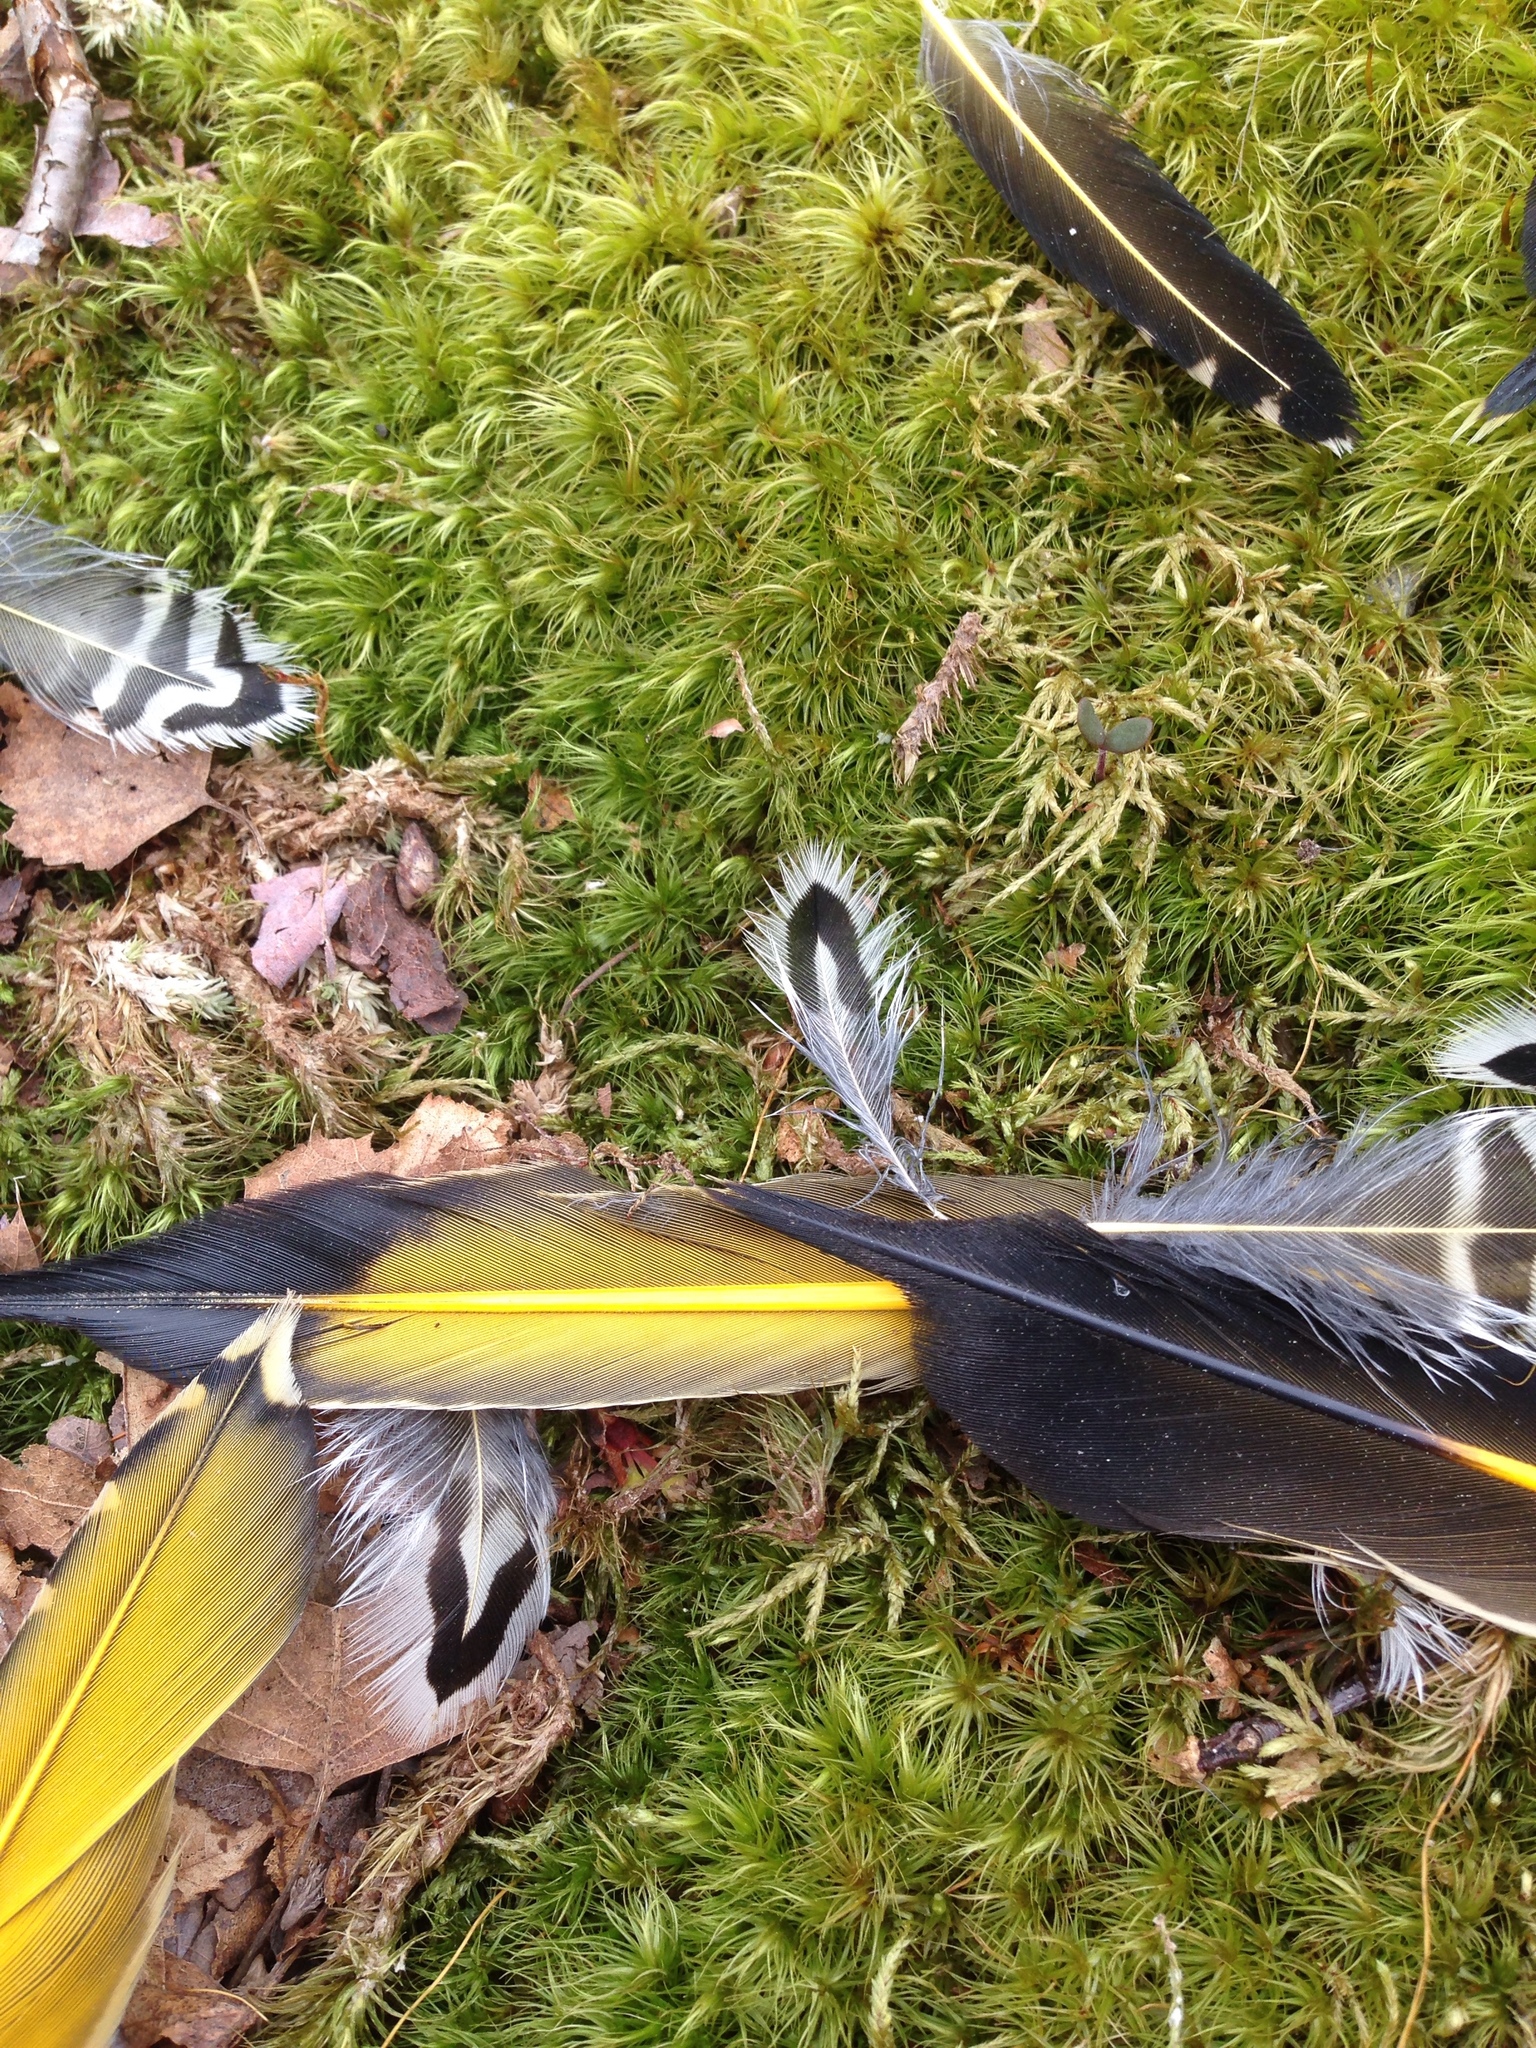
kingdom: Animalia
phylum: Chordata
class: Aves
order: Piciformes
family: Picidae
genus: Colaptes
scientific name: Colaptes auratus
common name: Northern flicker
